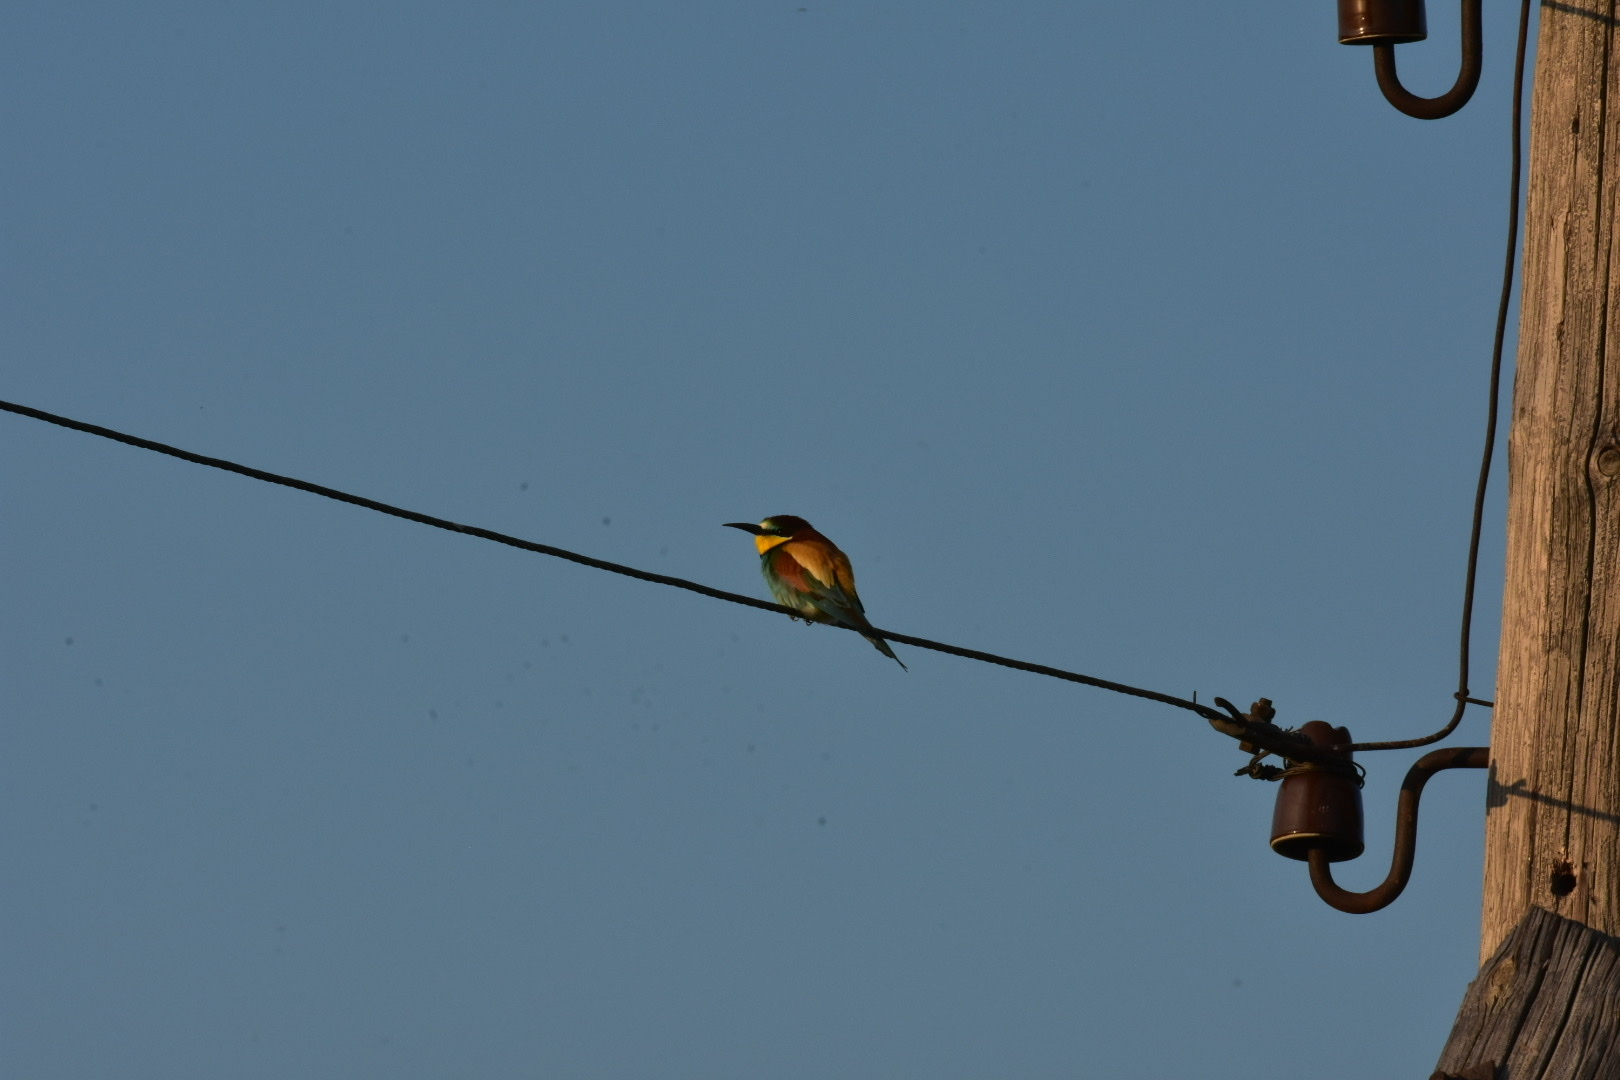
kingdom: Animalia
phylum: Chordata
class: Aves
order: Coraciiformes
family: Meropidae
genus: Merops
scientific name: Merops apiaster
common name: European bee-eater
